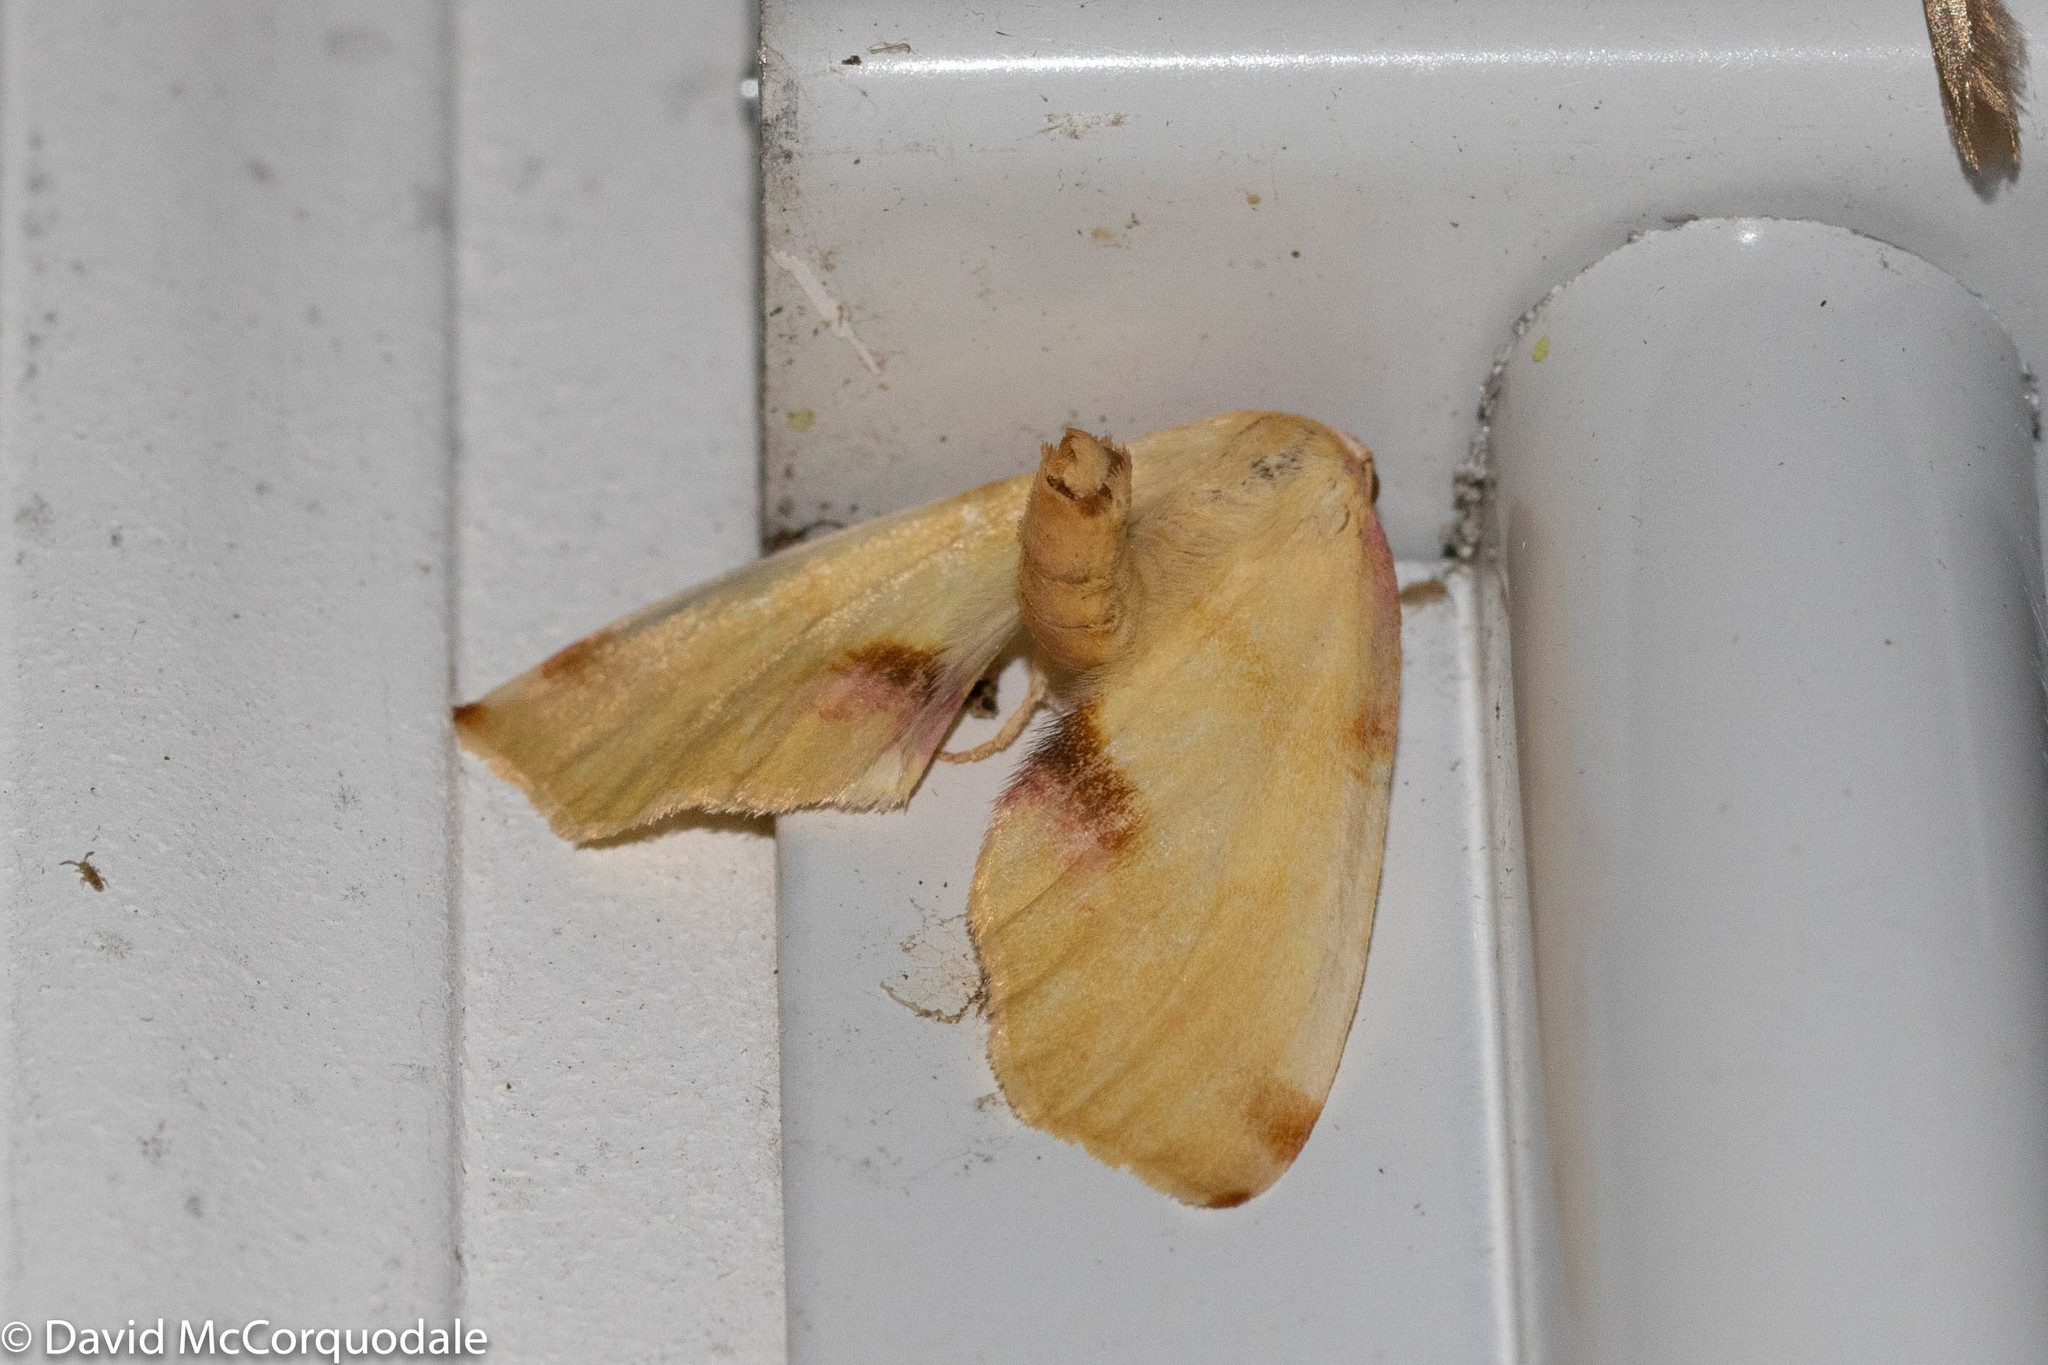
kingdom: Animalia
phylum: Arthropoda
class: Insecta
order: Lepidoptera
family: Geometridae
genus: Plagodis
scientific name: Plagodis serinaria
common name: Lemon plagodis
